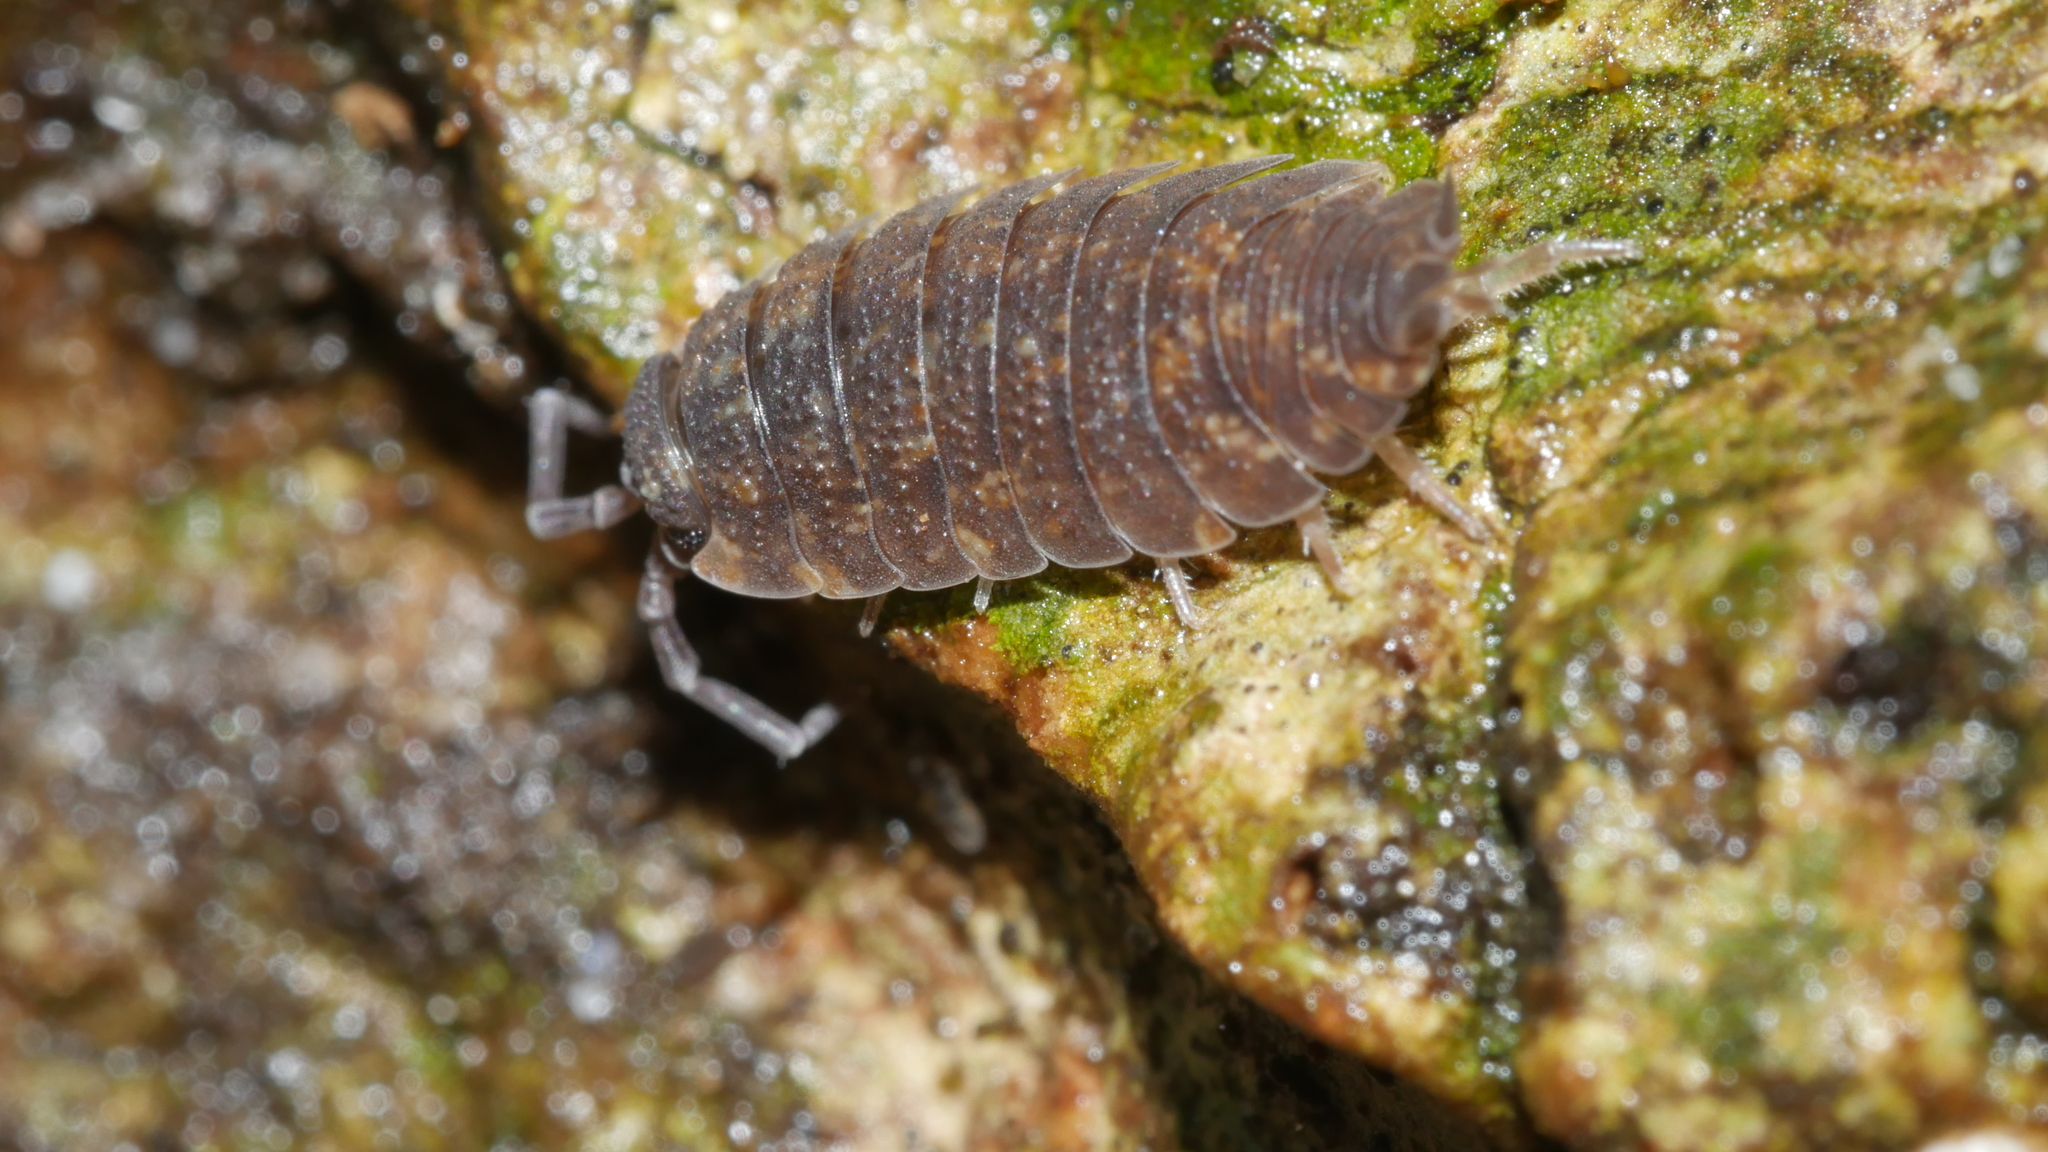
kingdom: Animalia
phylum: Arthropoda
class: Malacostraca
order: Isopoda
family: Porcellionidae
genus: Porcellio
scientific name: Porcellio scaber
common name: Common rough woodlouse
